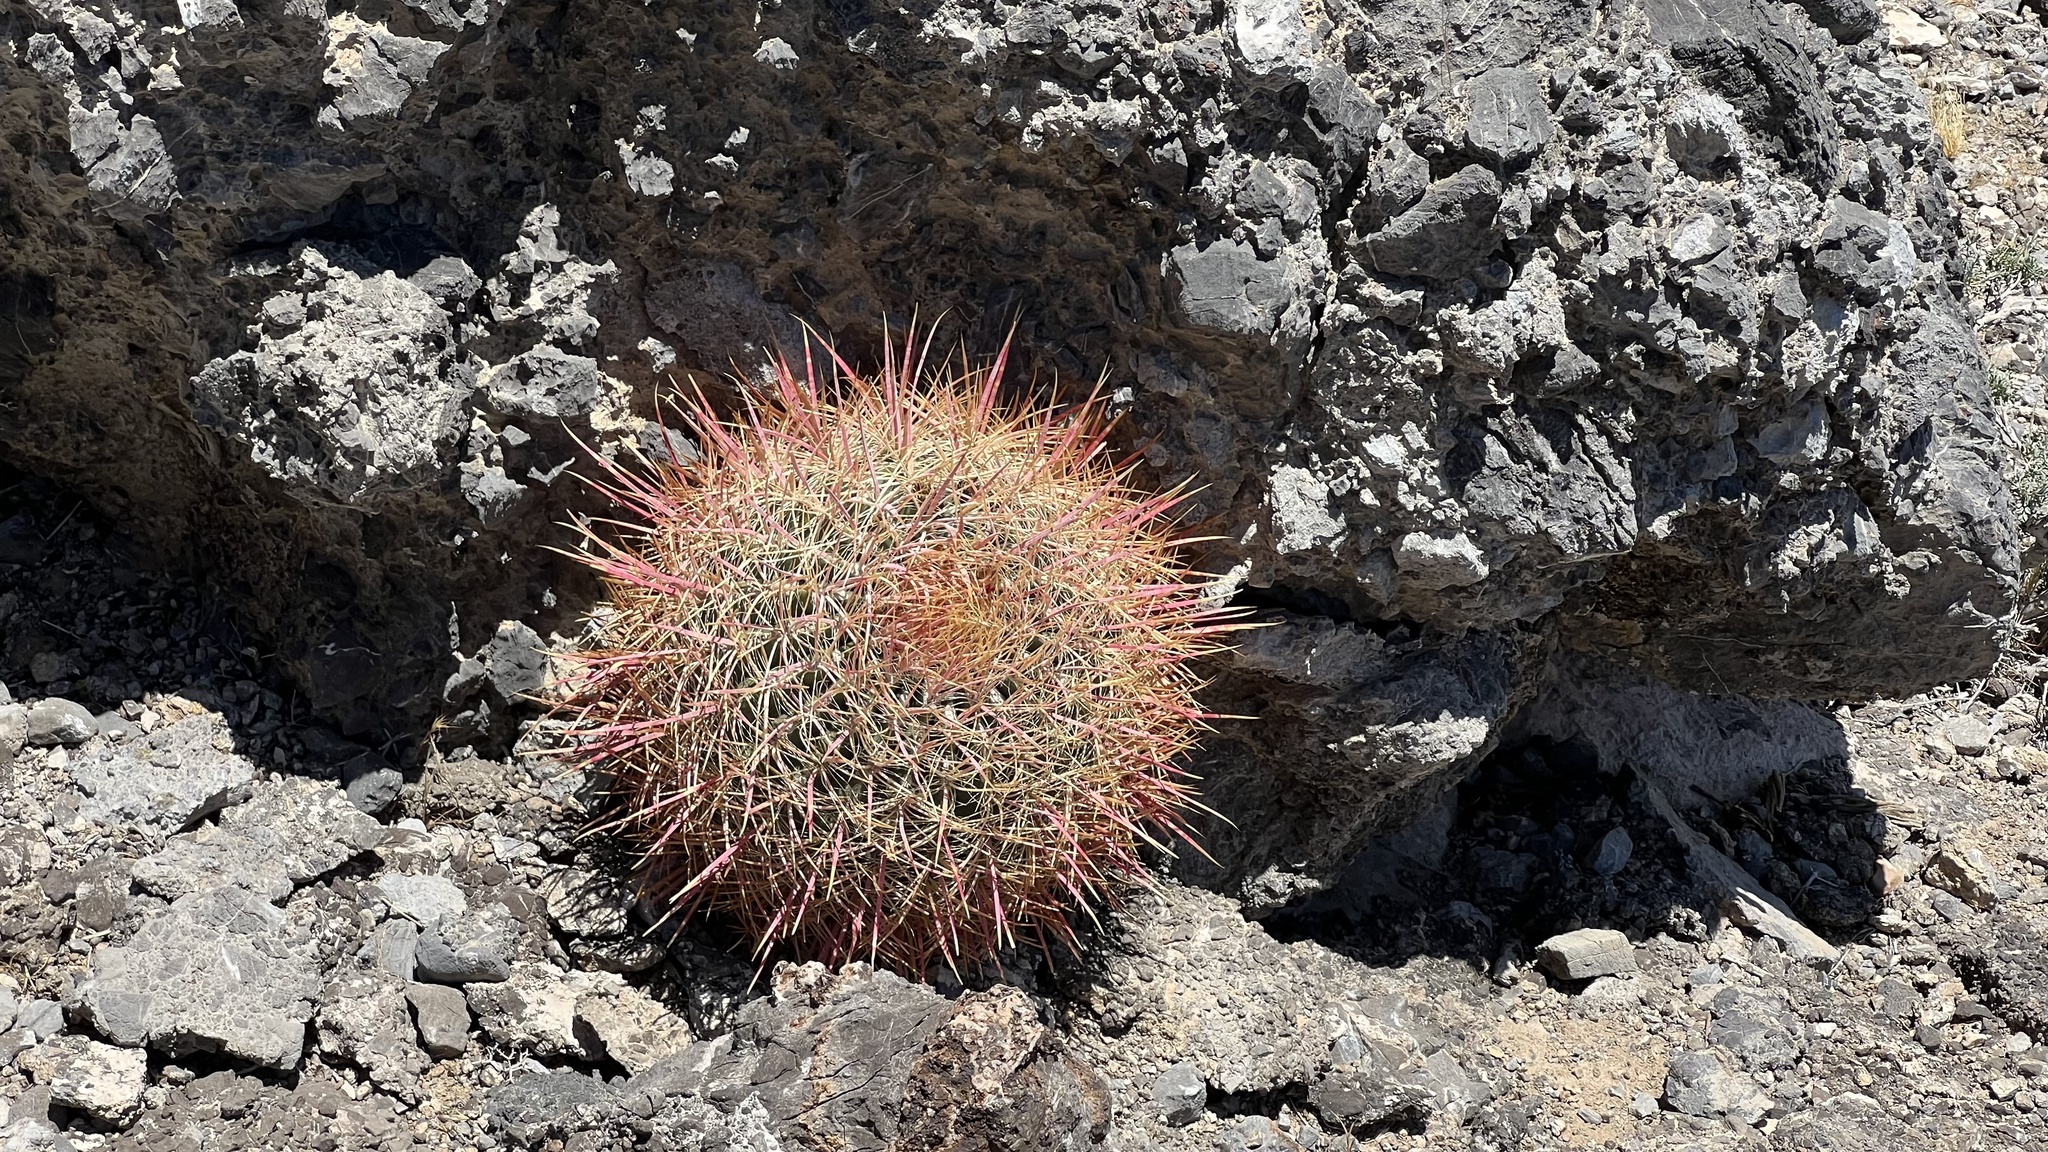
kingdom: Plantae
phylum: Tracheophyta
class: Magnoliopsida
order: Caryophyllales
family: Cactaceae
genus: Ferocactus
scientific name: Ferocactus cylindraceus
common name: California barrel cactus
